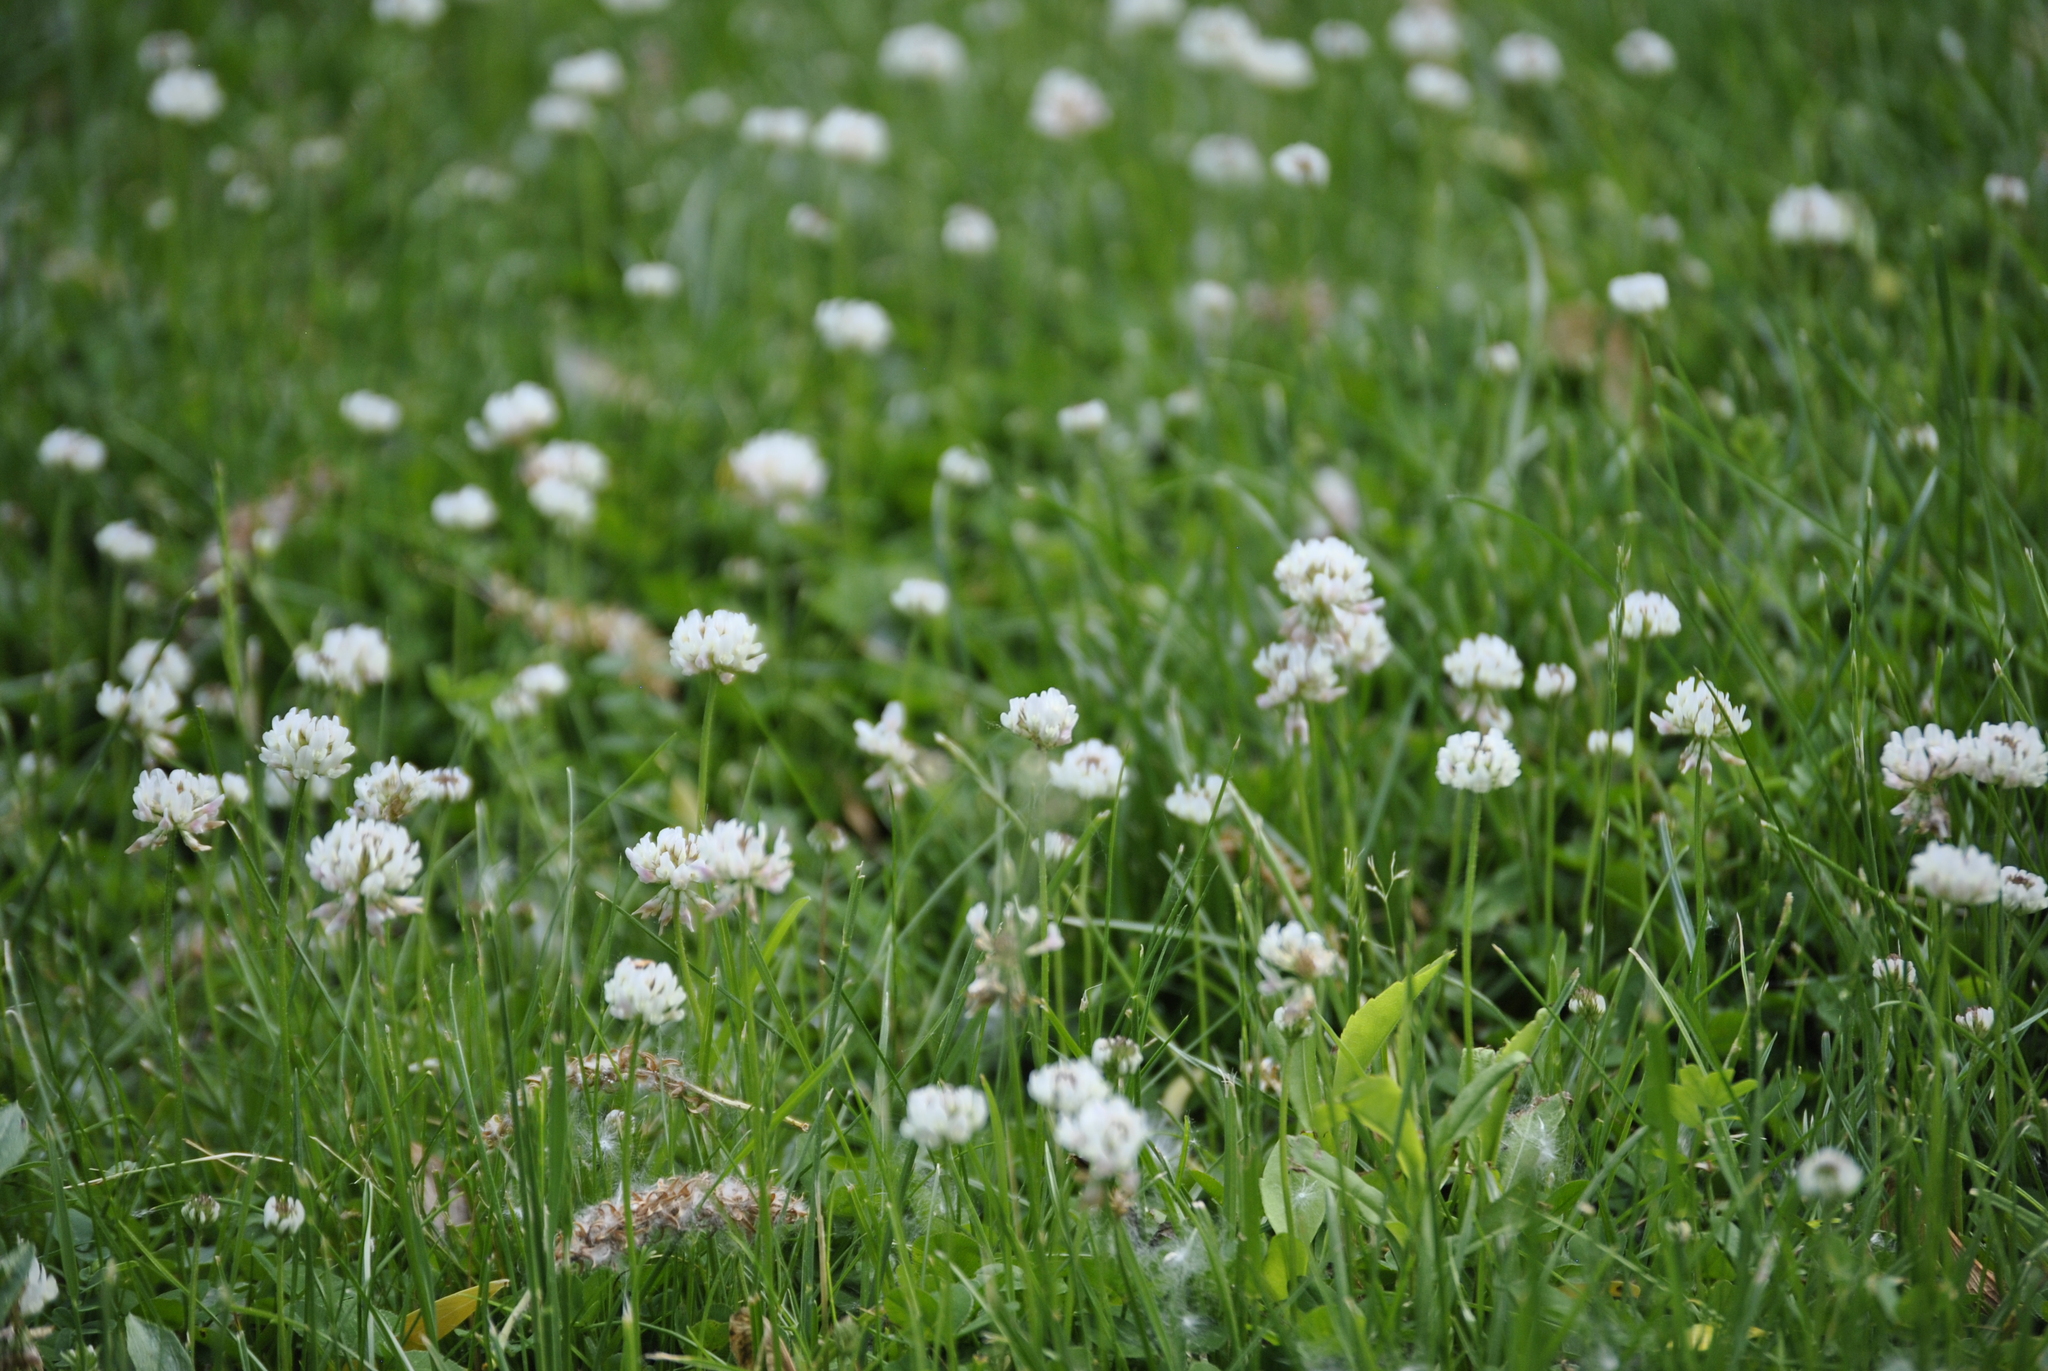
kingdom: Plantae
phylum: Tracheophyta
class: Magnoliopsida
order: Fabales
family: Fabaceae
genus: Trifolium
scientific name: Trifolium repens
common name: White clover
